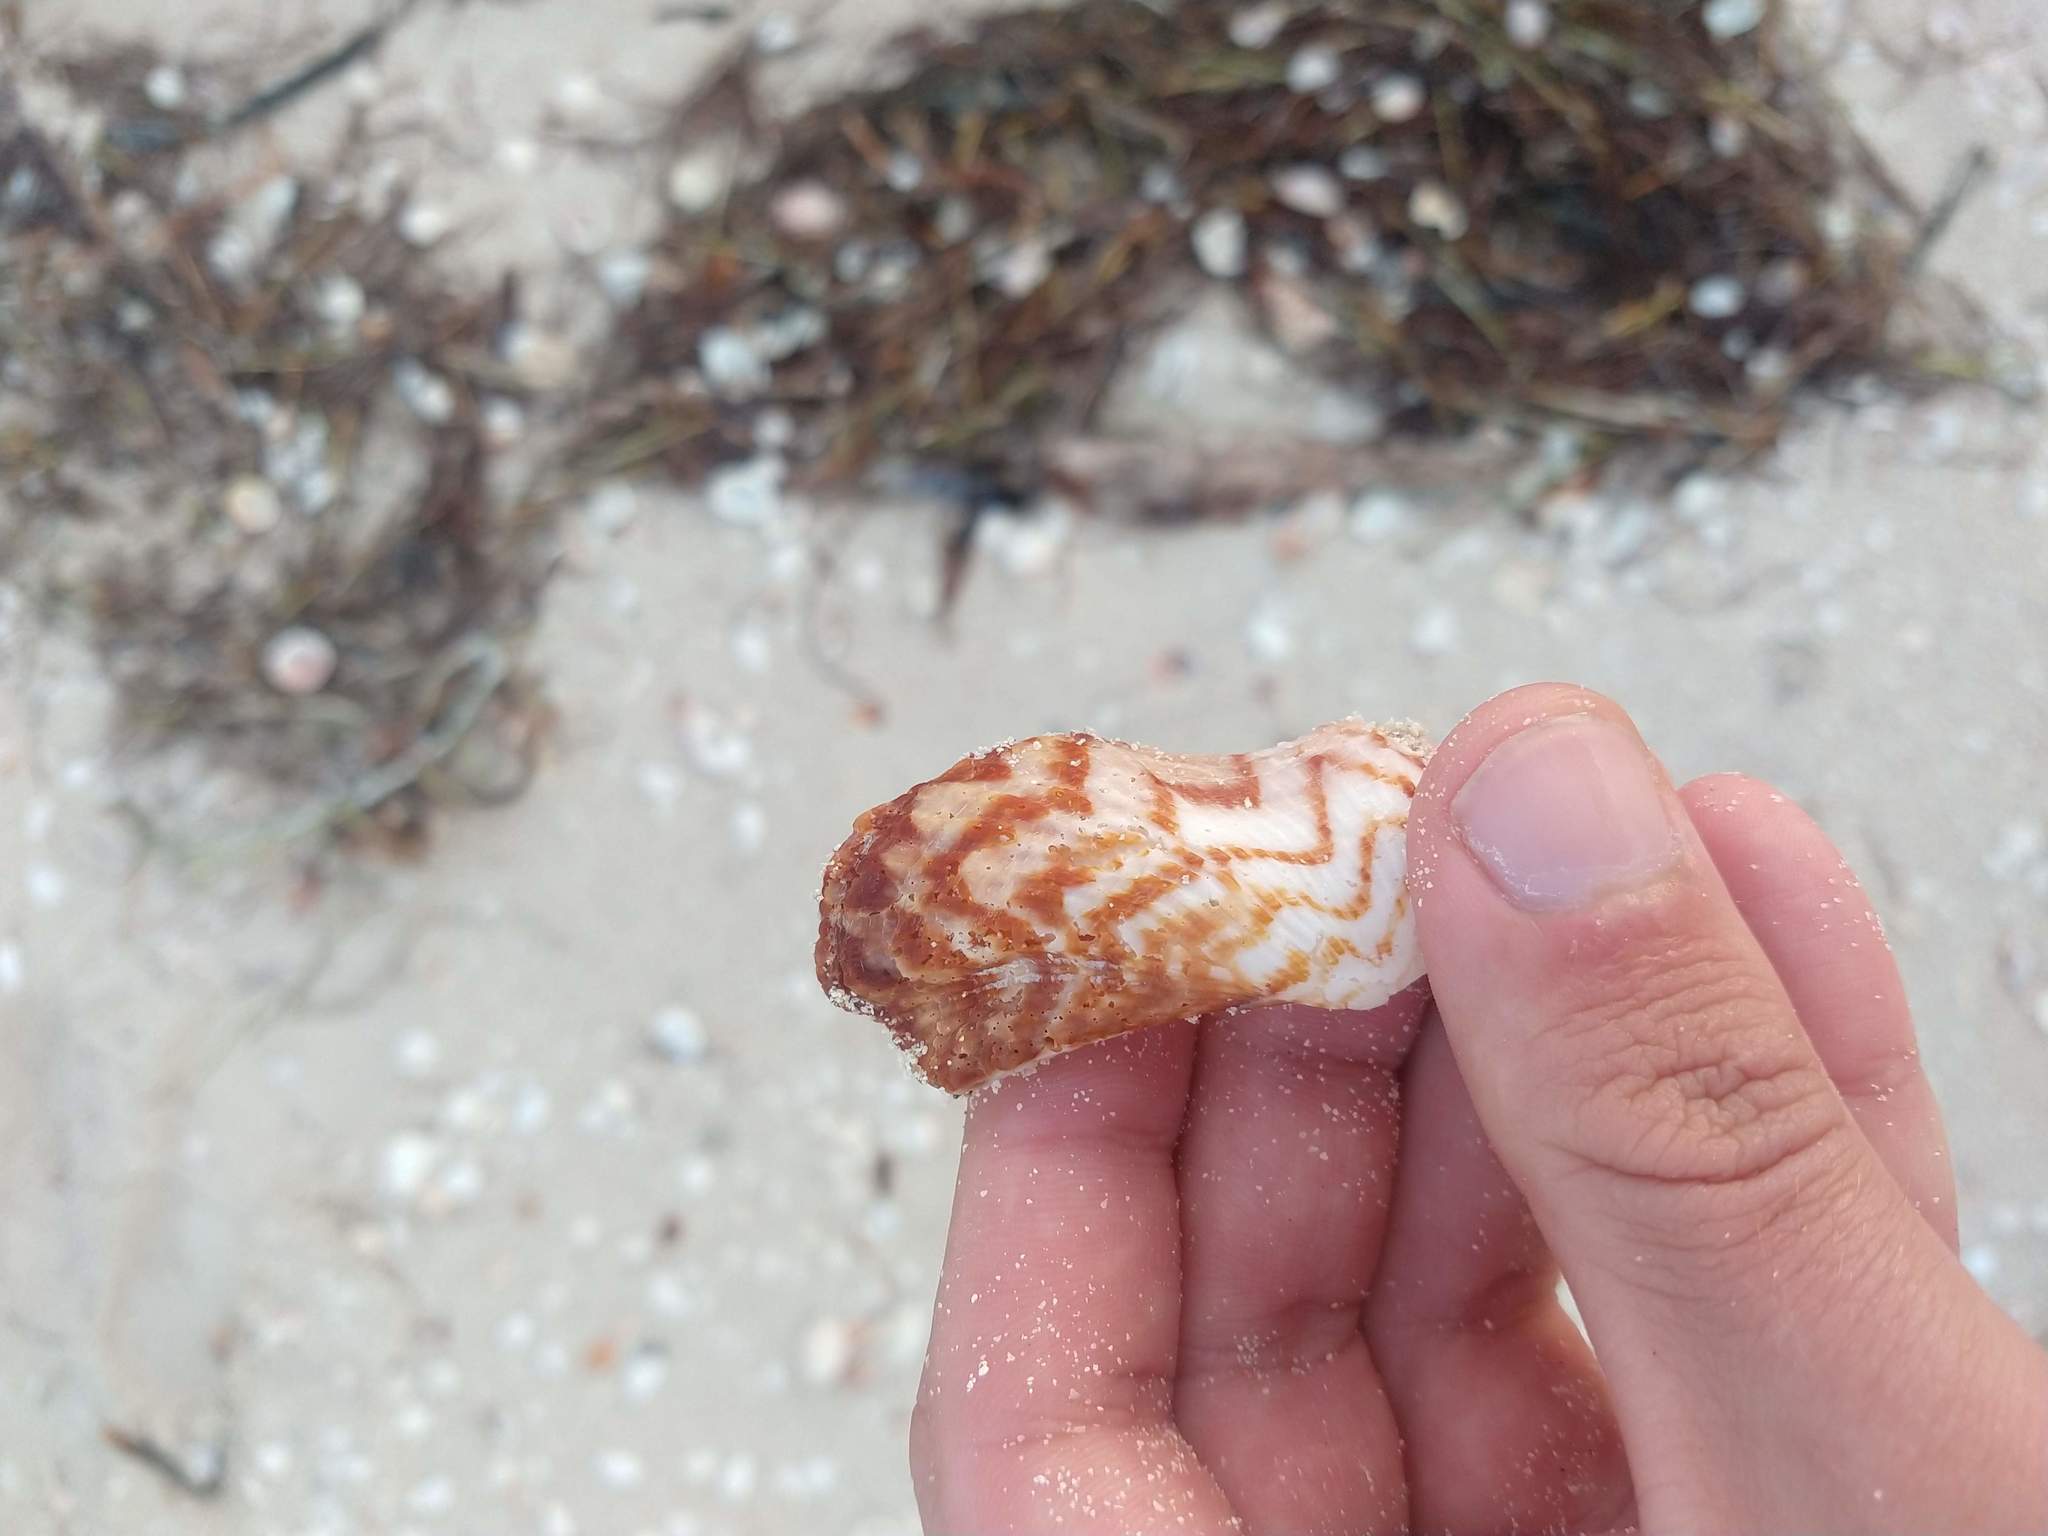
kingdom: Animalia
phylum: Mollusca
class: Bivalvia
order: Arcida
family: Arcidae
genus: Arca
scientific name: Arca zebra
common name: Atlantic turkey wing
